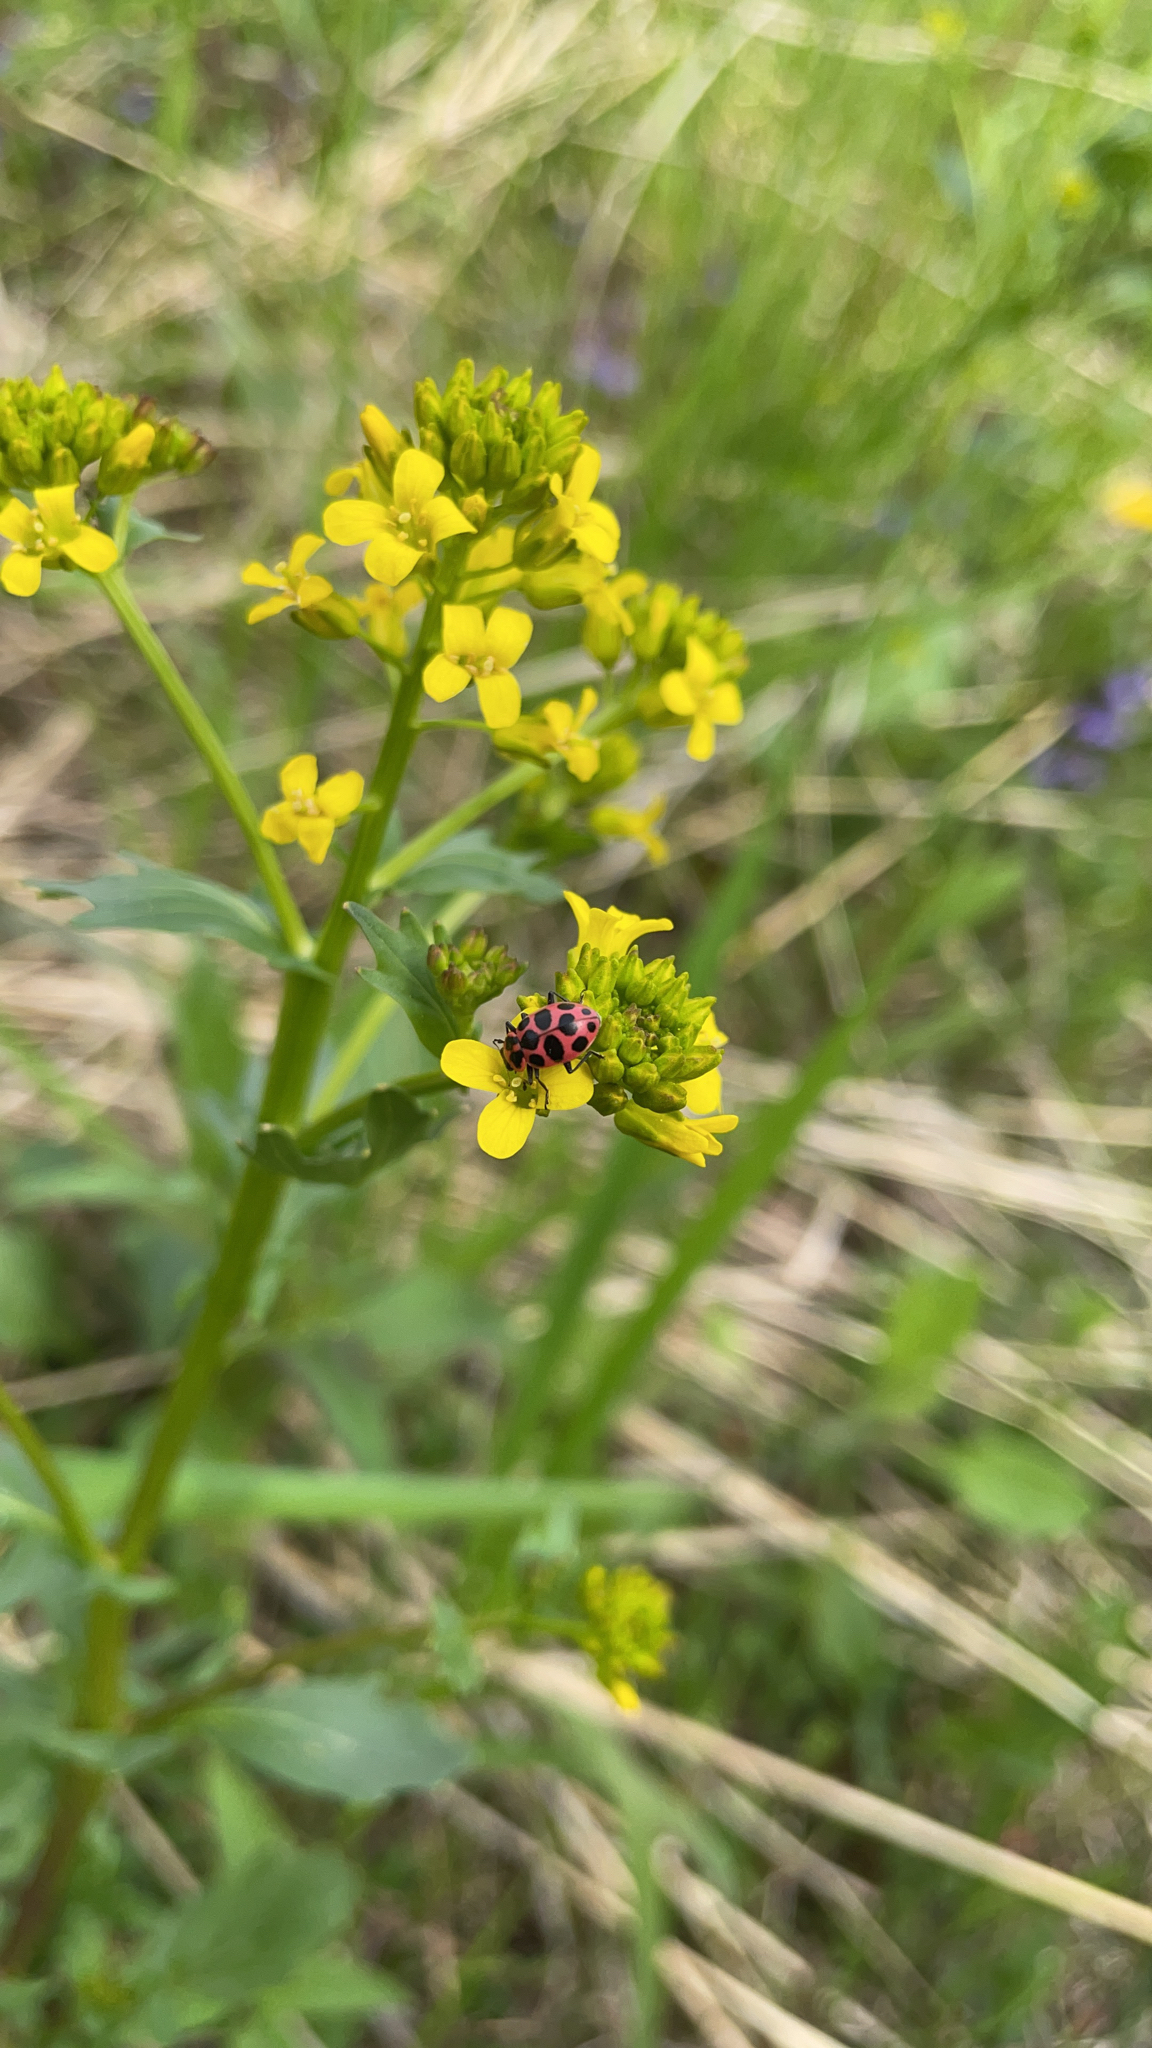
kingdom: Animalia
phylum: Arthropoda
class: Insecta
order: Coleoptera
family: Coccinellidae
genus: Coleomegilla
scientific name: Coleomegilla maculata
